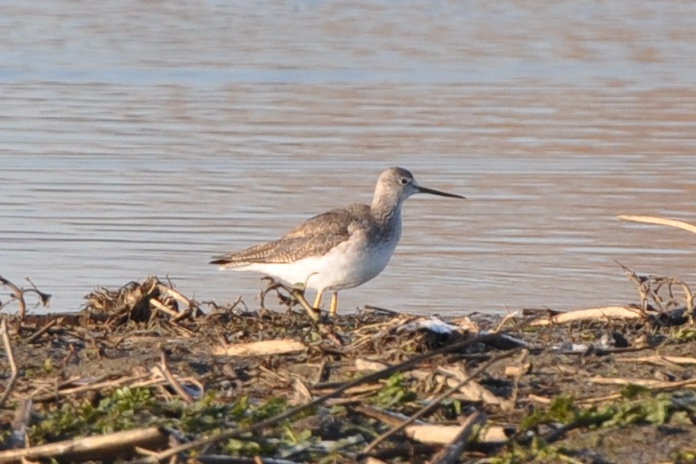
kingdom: Animalia
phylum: Chordata
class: Aves
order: Charadriiformes
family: Scolopacidae
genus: Tringa
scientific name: Tringa melanoleuca
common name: Greater yellowlegs
